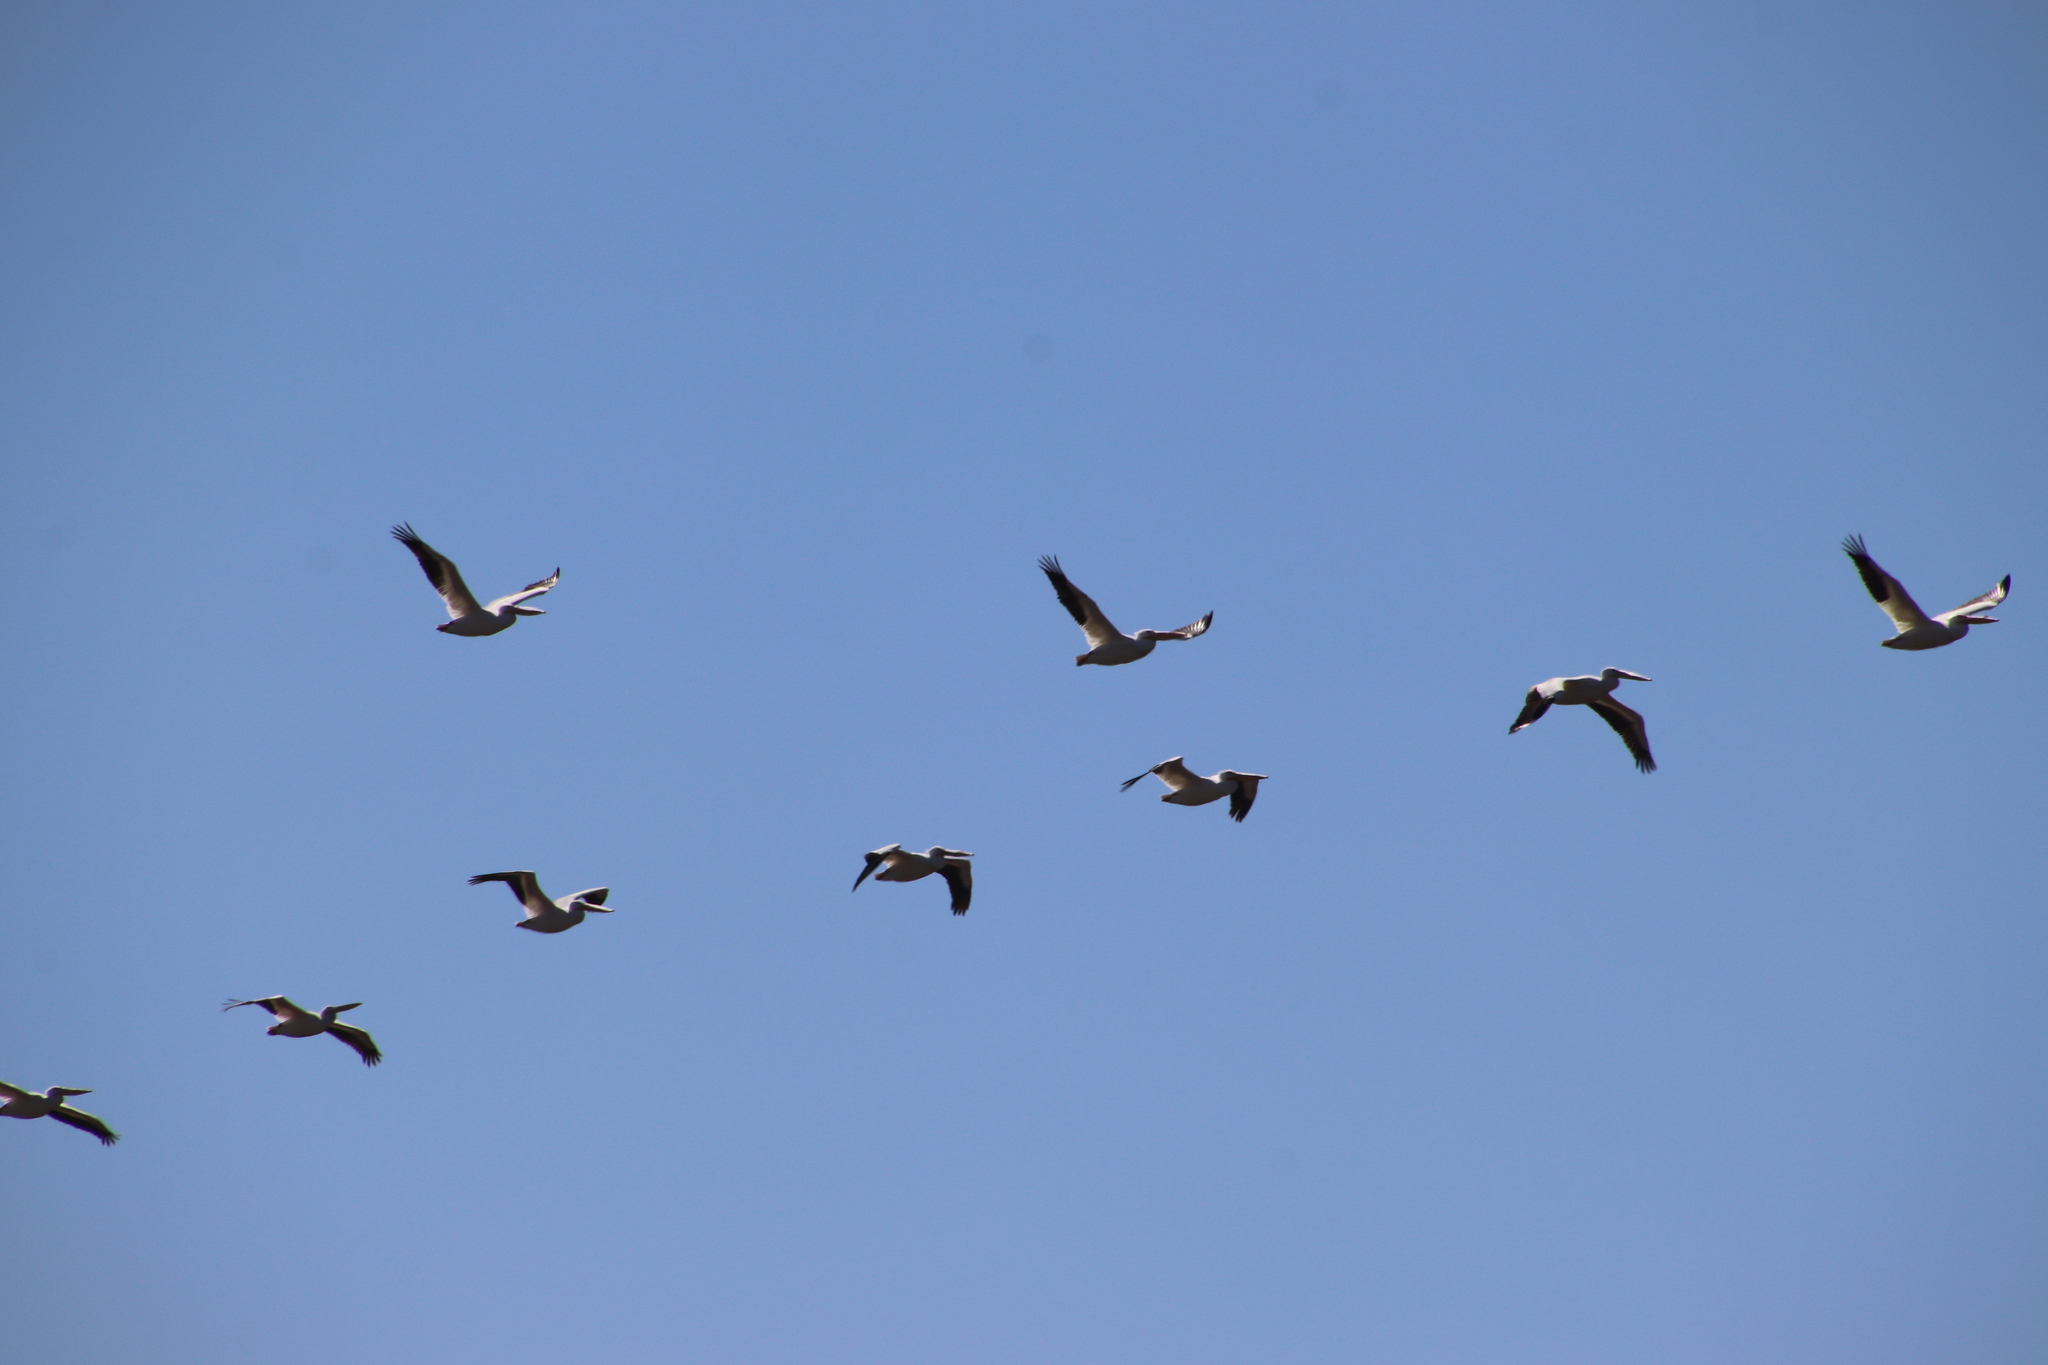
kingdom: Animalia
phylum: Chordata
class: Aves
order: Pelecaniformes
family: Pelecanidae
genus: Pelecanus
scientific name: Pelecanus erythrorhynchos
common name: American white pelican
